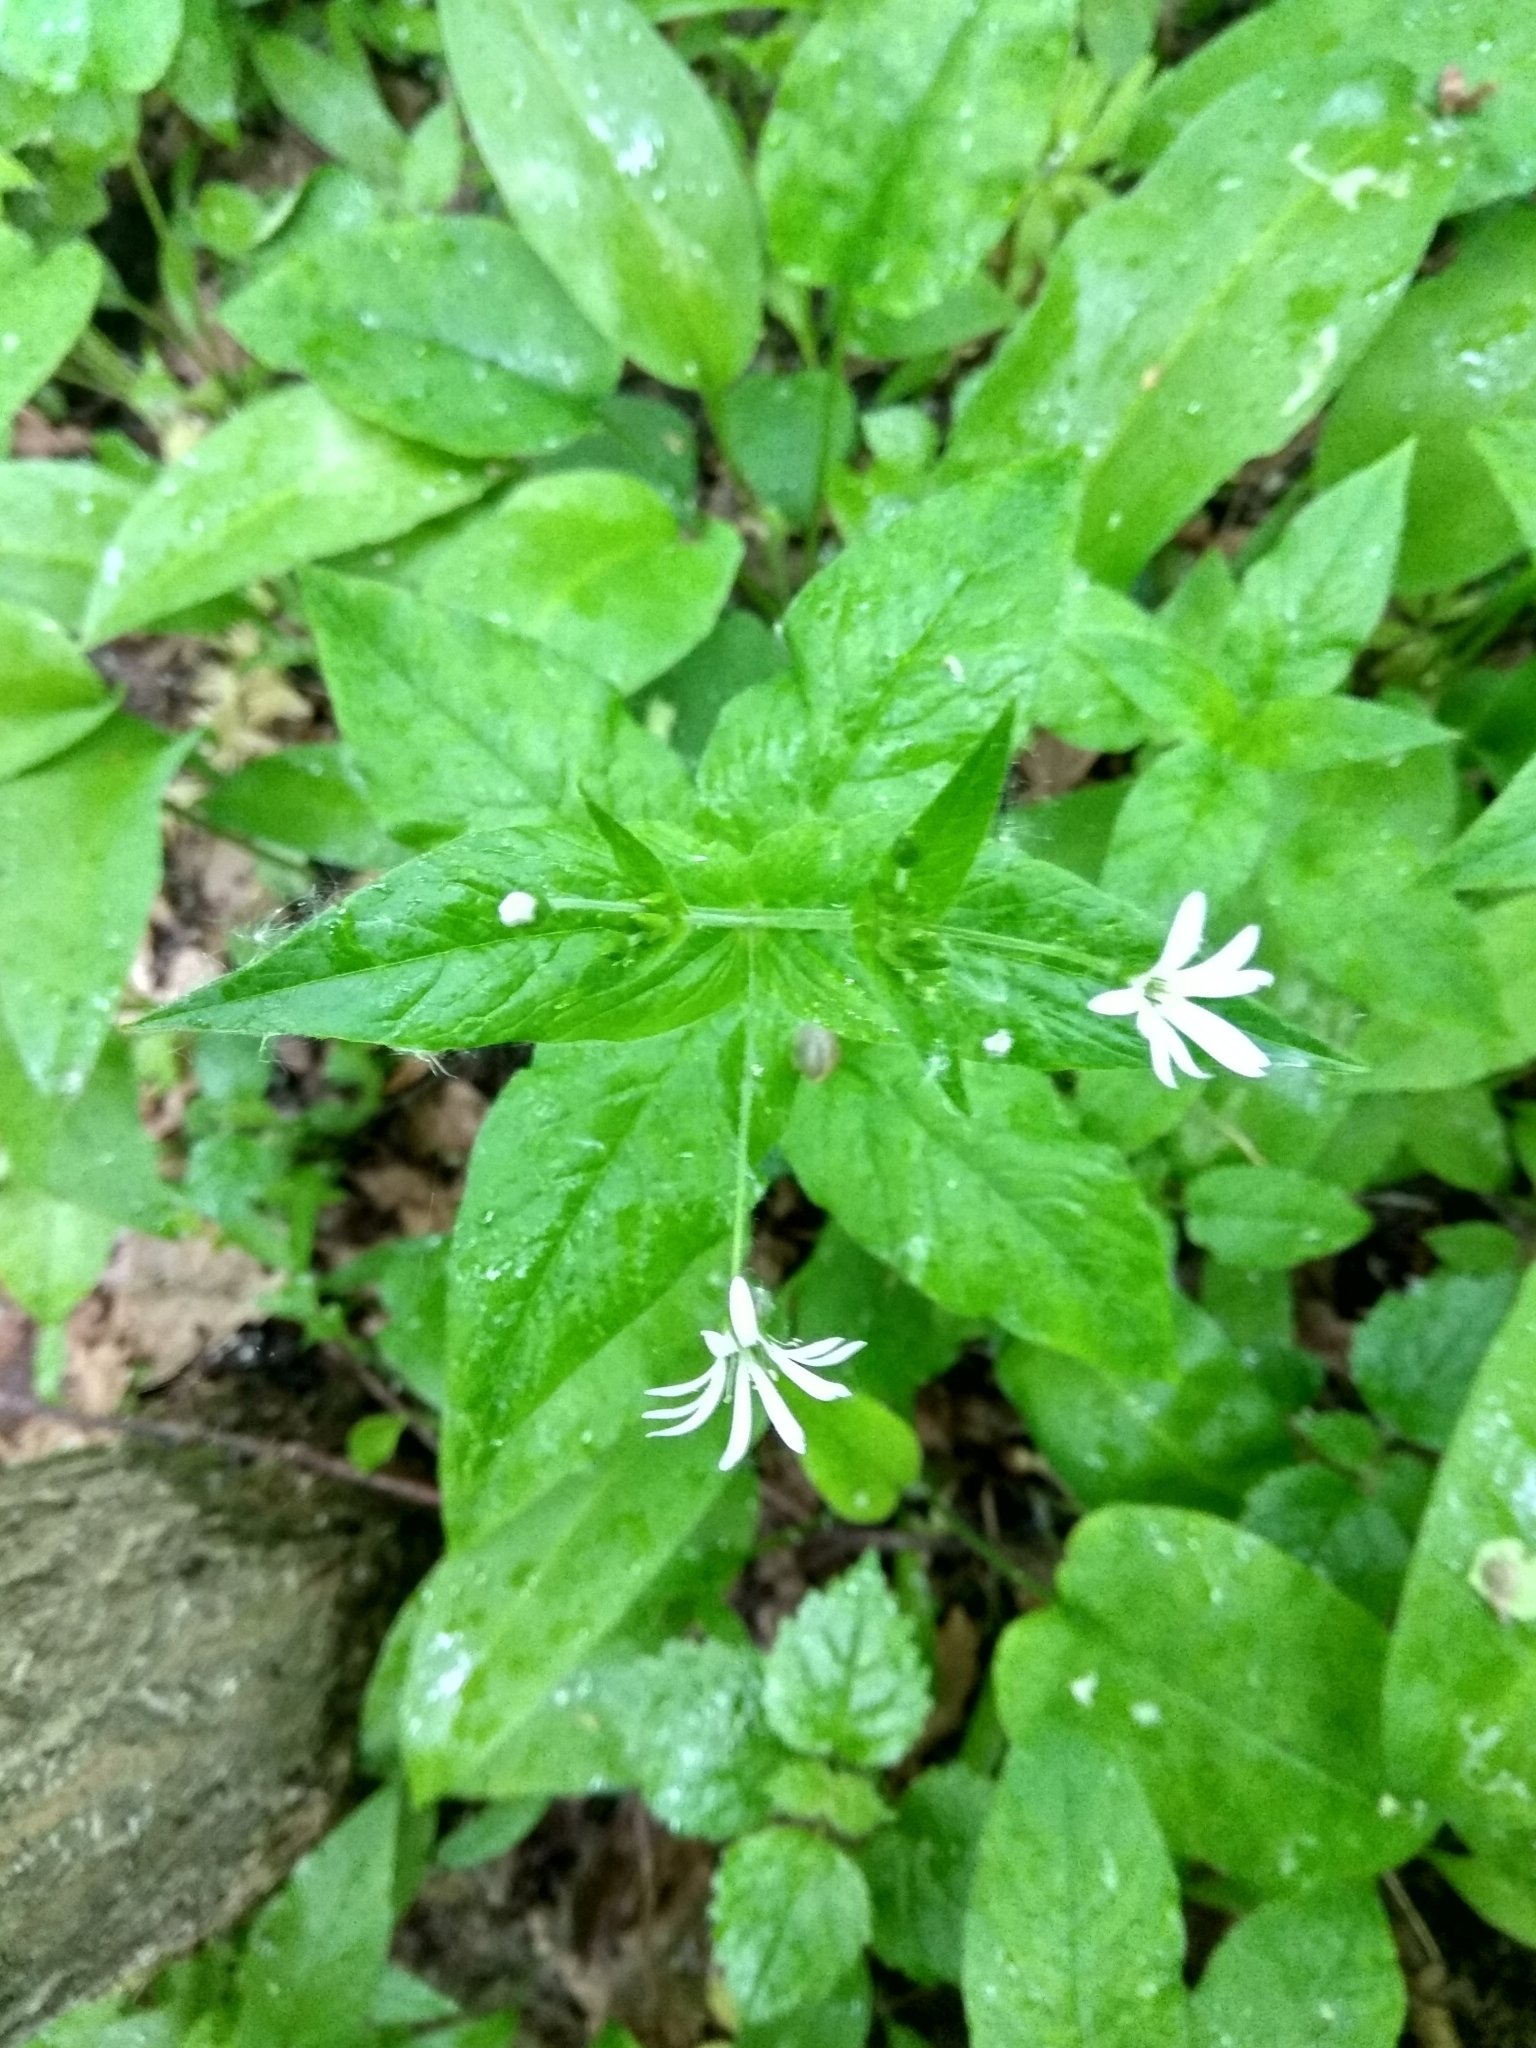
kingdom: Plantae
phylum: Tracheophyta
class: Magnoliopsida
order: Caryophyllales
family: Caryophyllaceae
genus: Stellaria
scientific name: Stellaria nemorum
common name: Wood stitchwort
